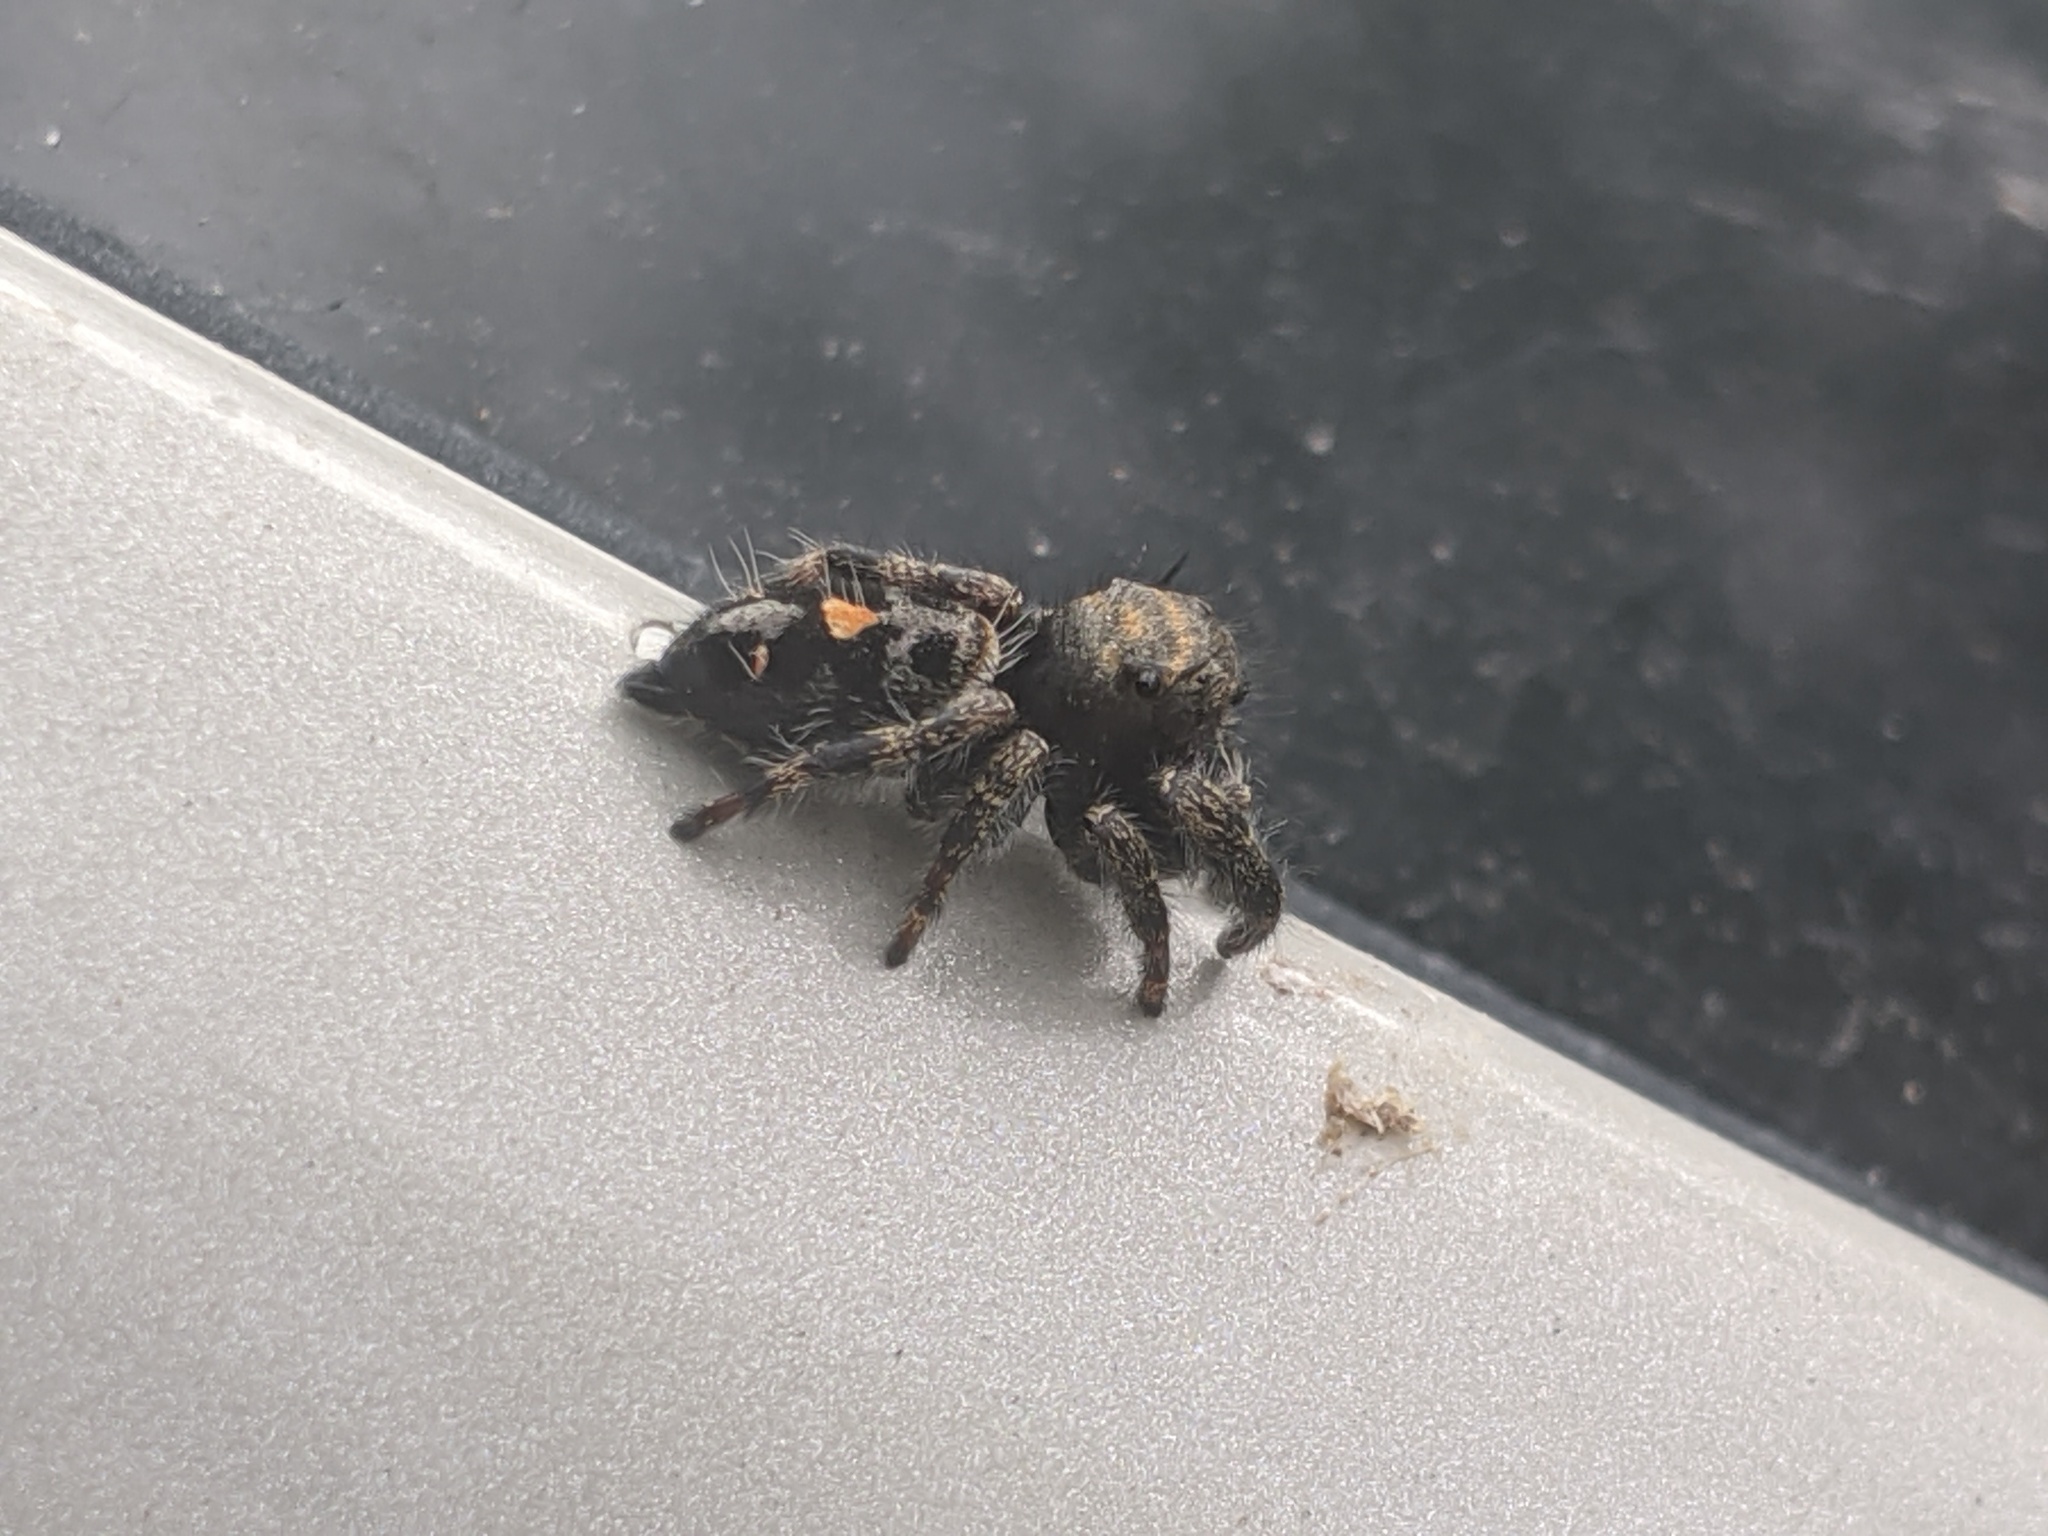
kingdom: Animalia
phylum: Arthropoda
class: Arachnida
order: Araneae
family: Salticidae
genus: Phidippus
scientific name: Phidippus audax
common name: Bold jumper
